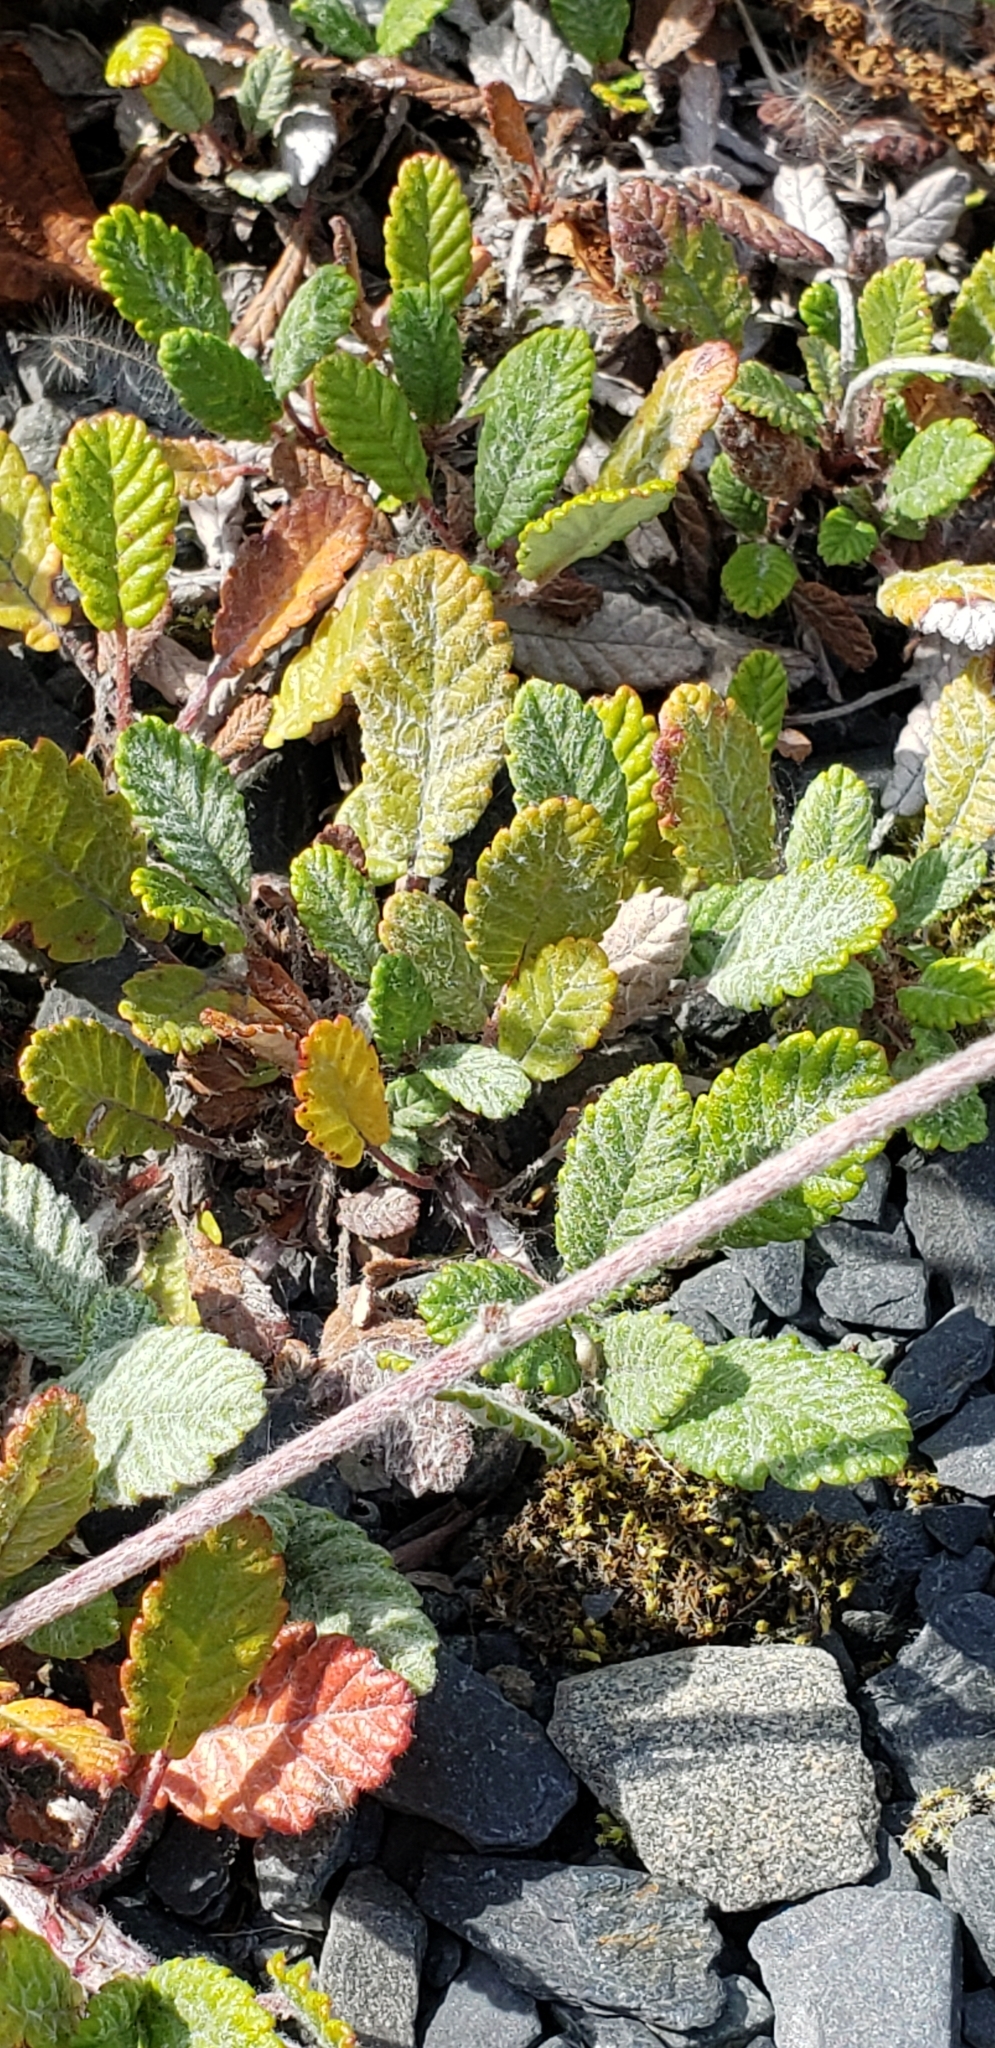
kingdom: Plantae
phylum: Tracheophyta
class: Magnoliopsida
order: Rosales
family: Rosaceae
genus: Dryas
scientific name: Dryas drummondii
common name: Drummond's dryad
